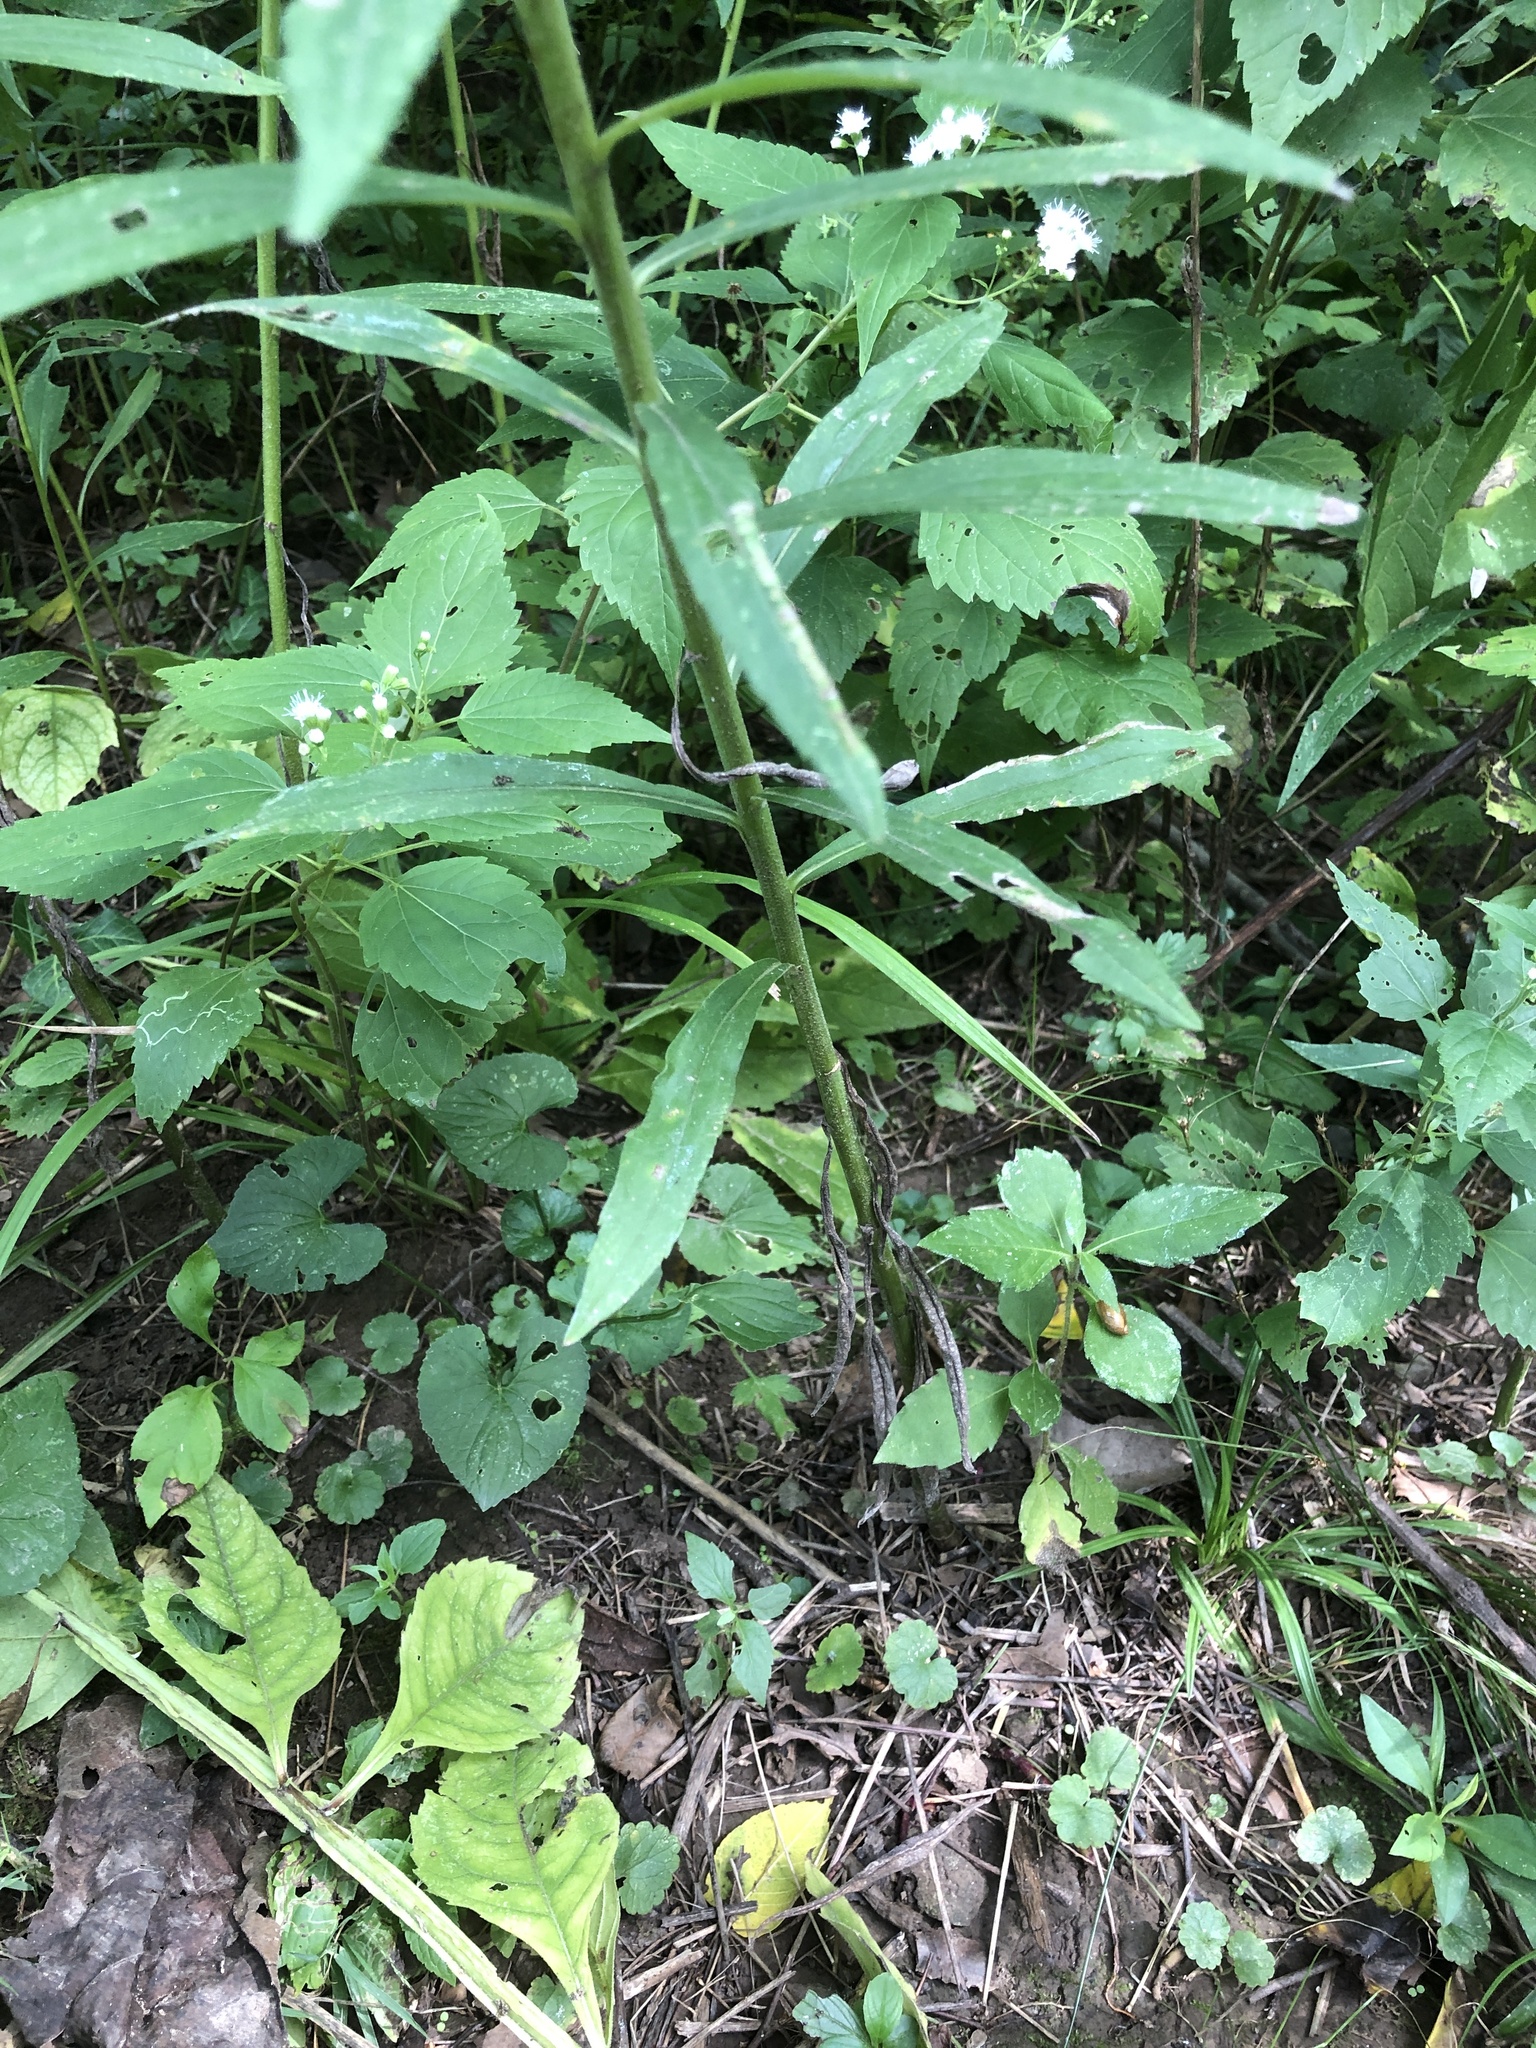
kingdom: Plantae
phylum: Tracheophyta
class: Magnoliopsida
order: Asterales
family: Asteraceae
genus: Solidago
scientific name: Solidago nemoralis
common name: Grey goldenrod
